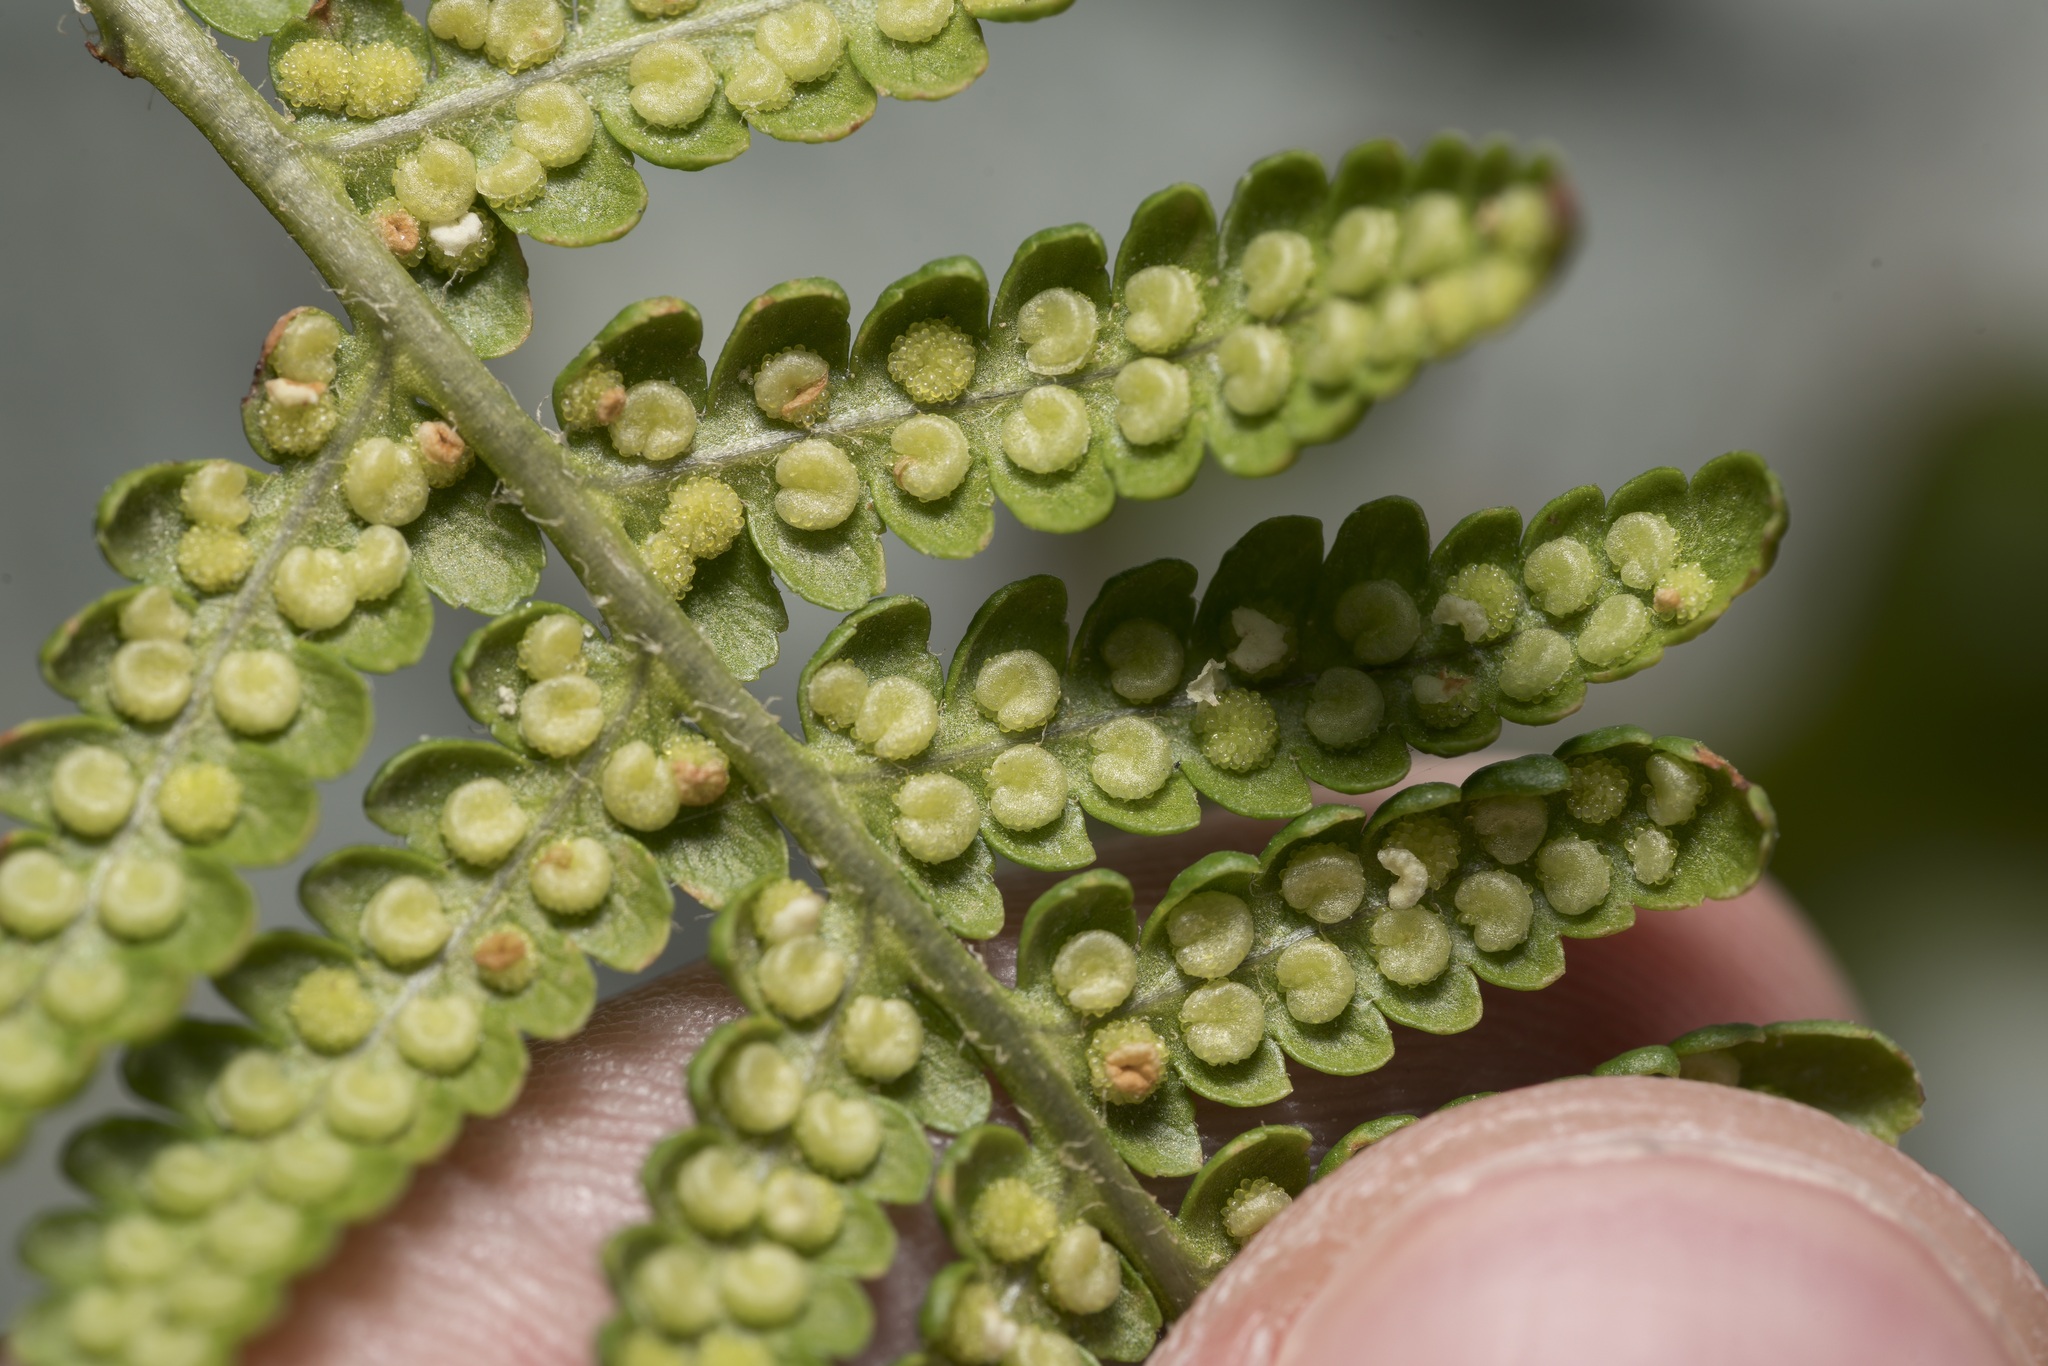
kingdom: Plantae
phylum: Tracheophyta
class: Polypodiopsida
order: Polypodiales
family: Dryopteridaceae
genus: Dryopteris
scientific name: Dryopteris filix-mas
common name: Male fern
